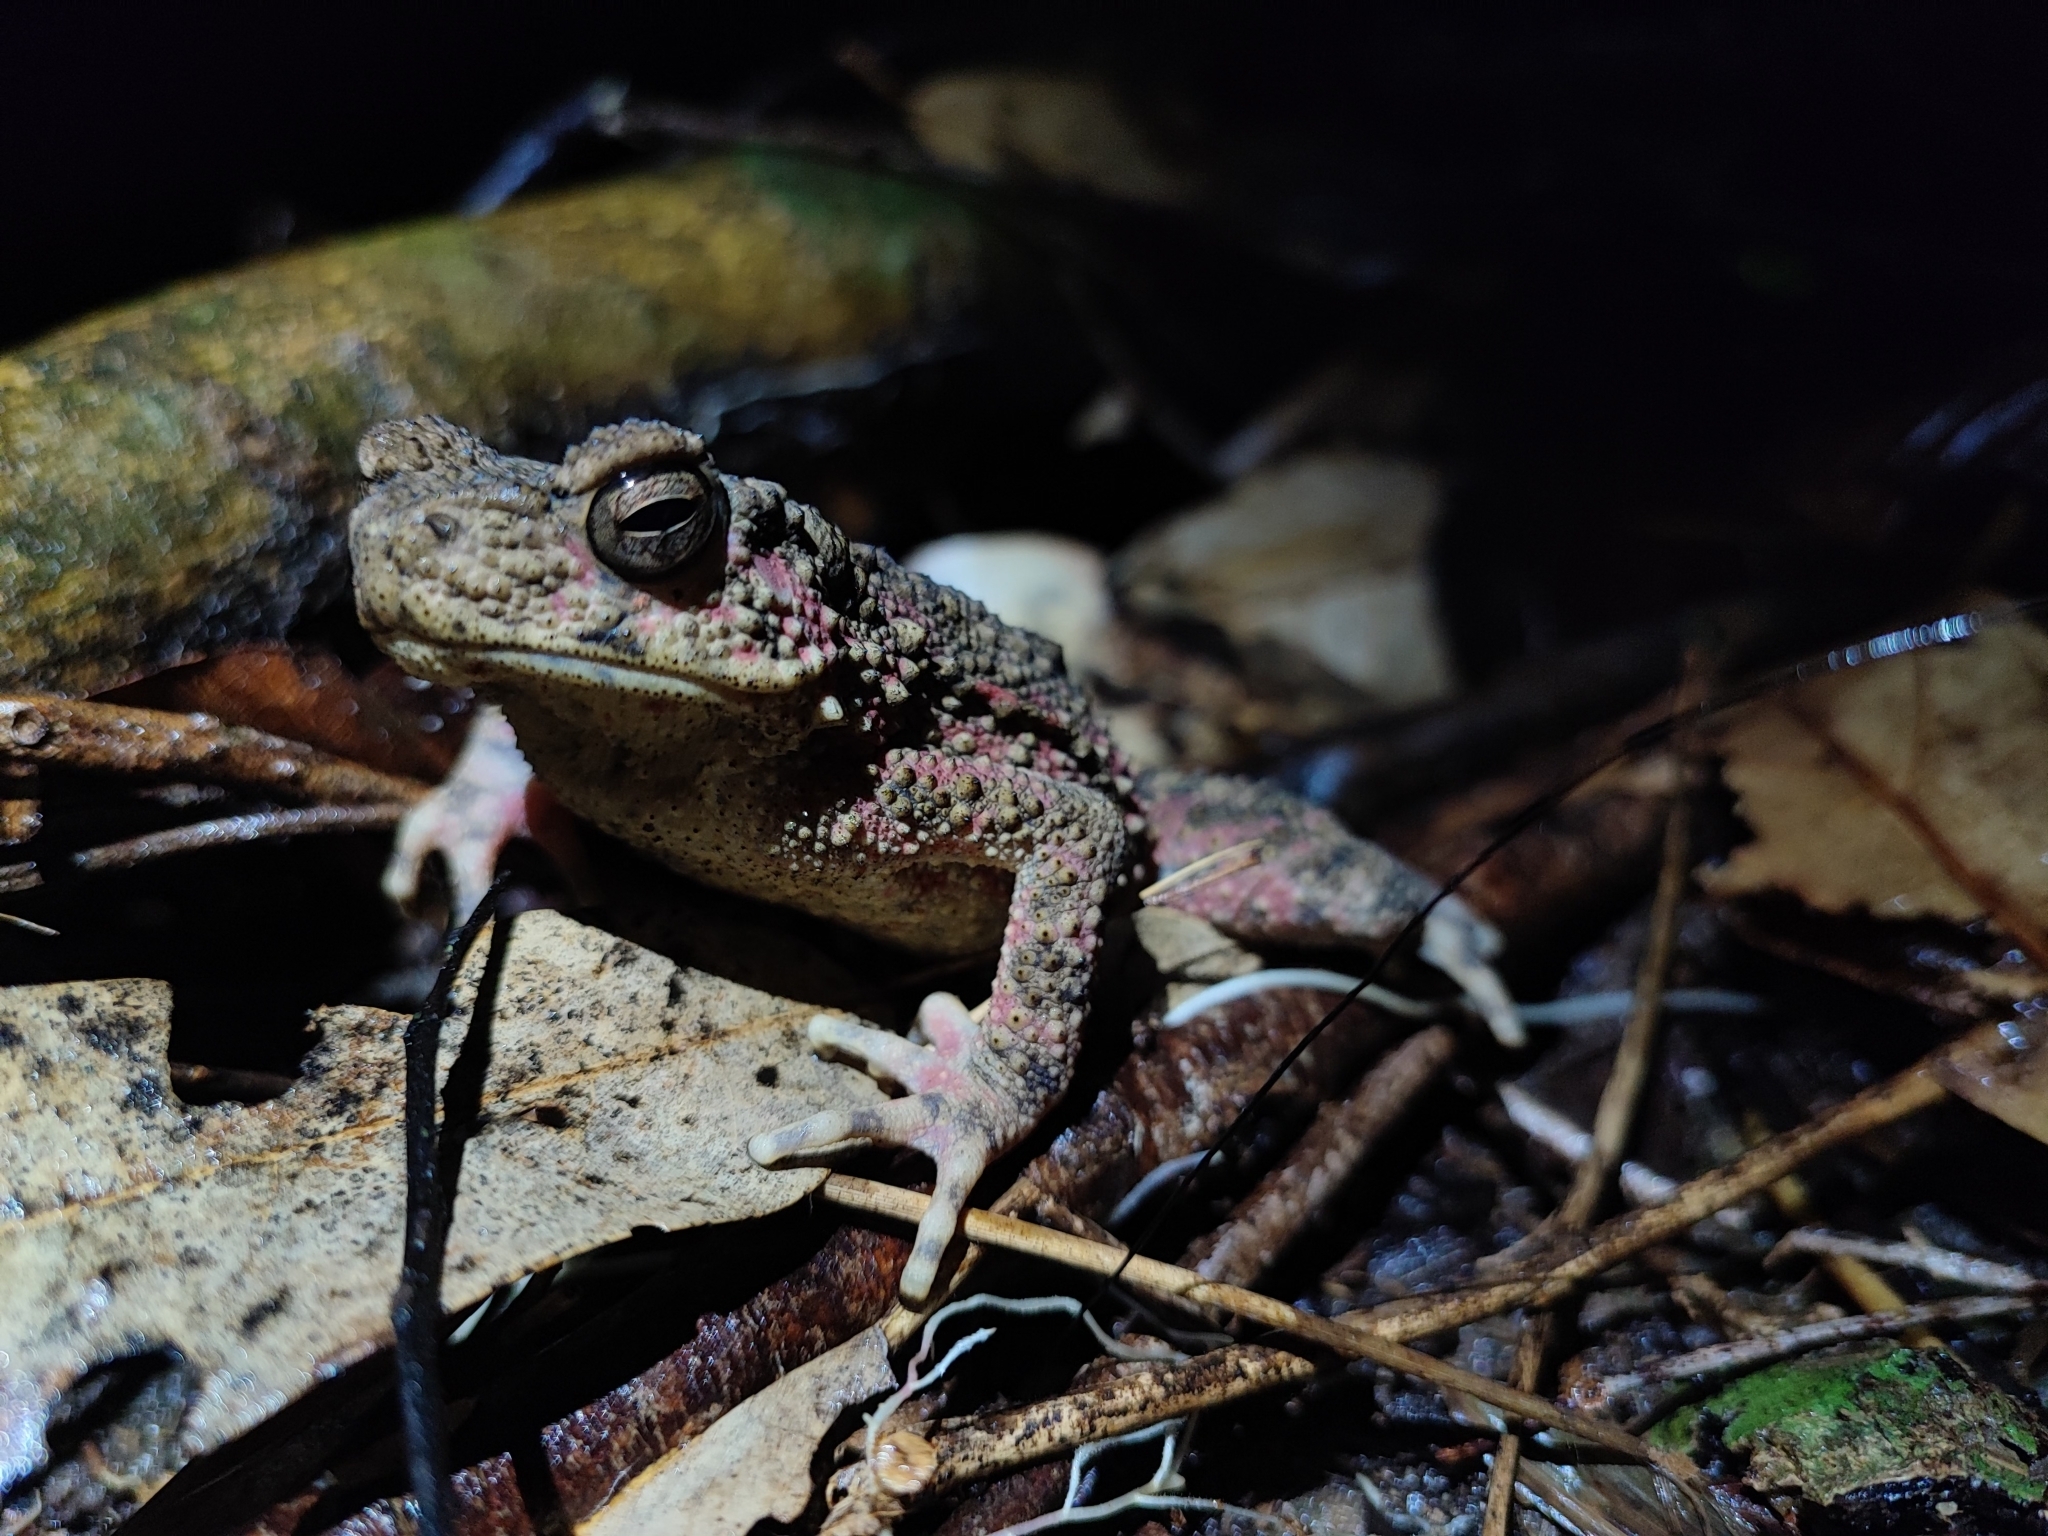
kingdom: Animalia
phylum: Chordata
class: Amphibia
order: Anura
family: Bufonidae
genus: Phrynoidis
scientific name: Phrynoidis asper
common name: Asian giant toad
